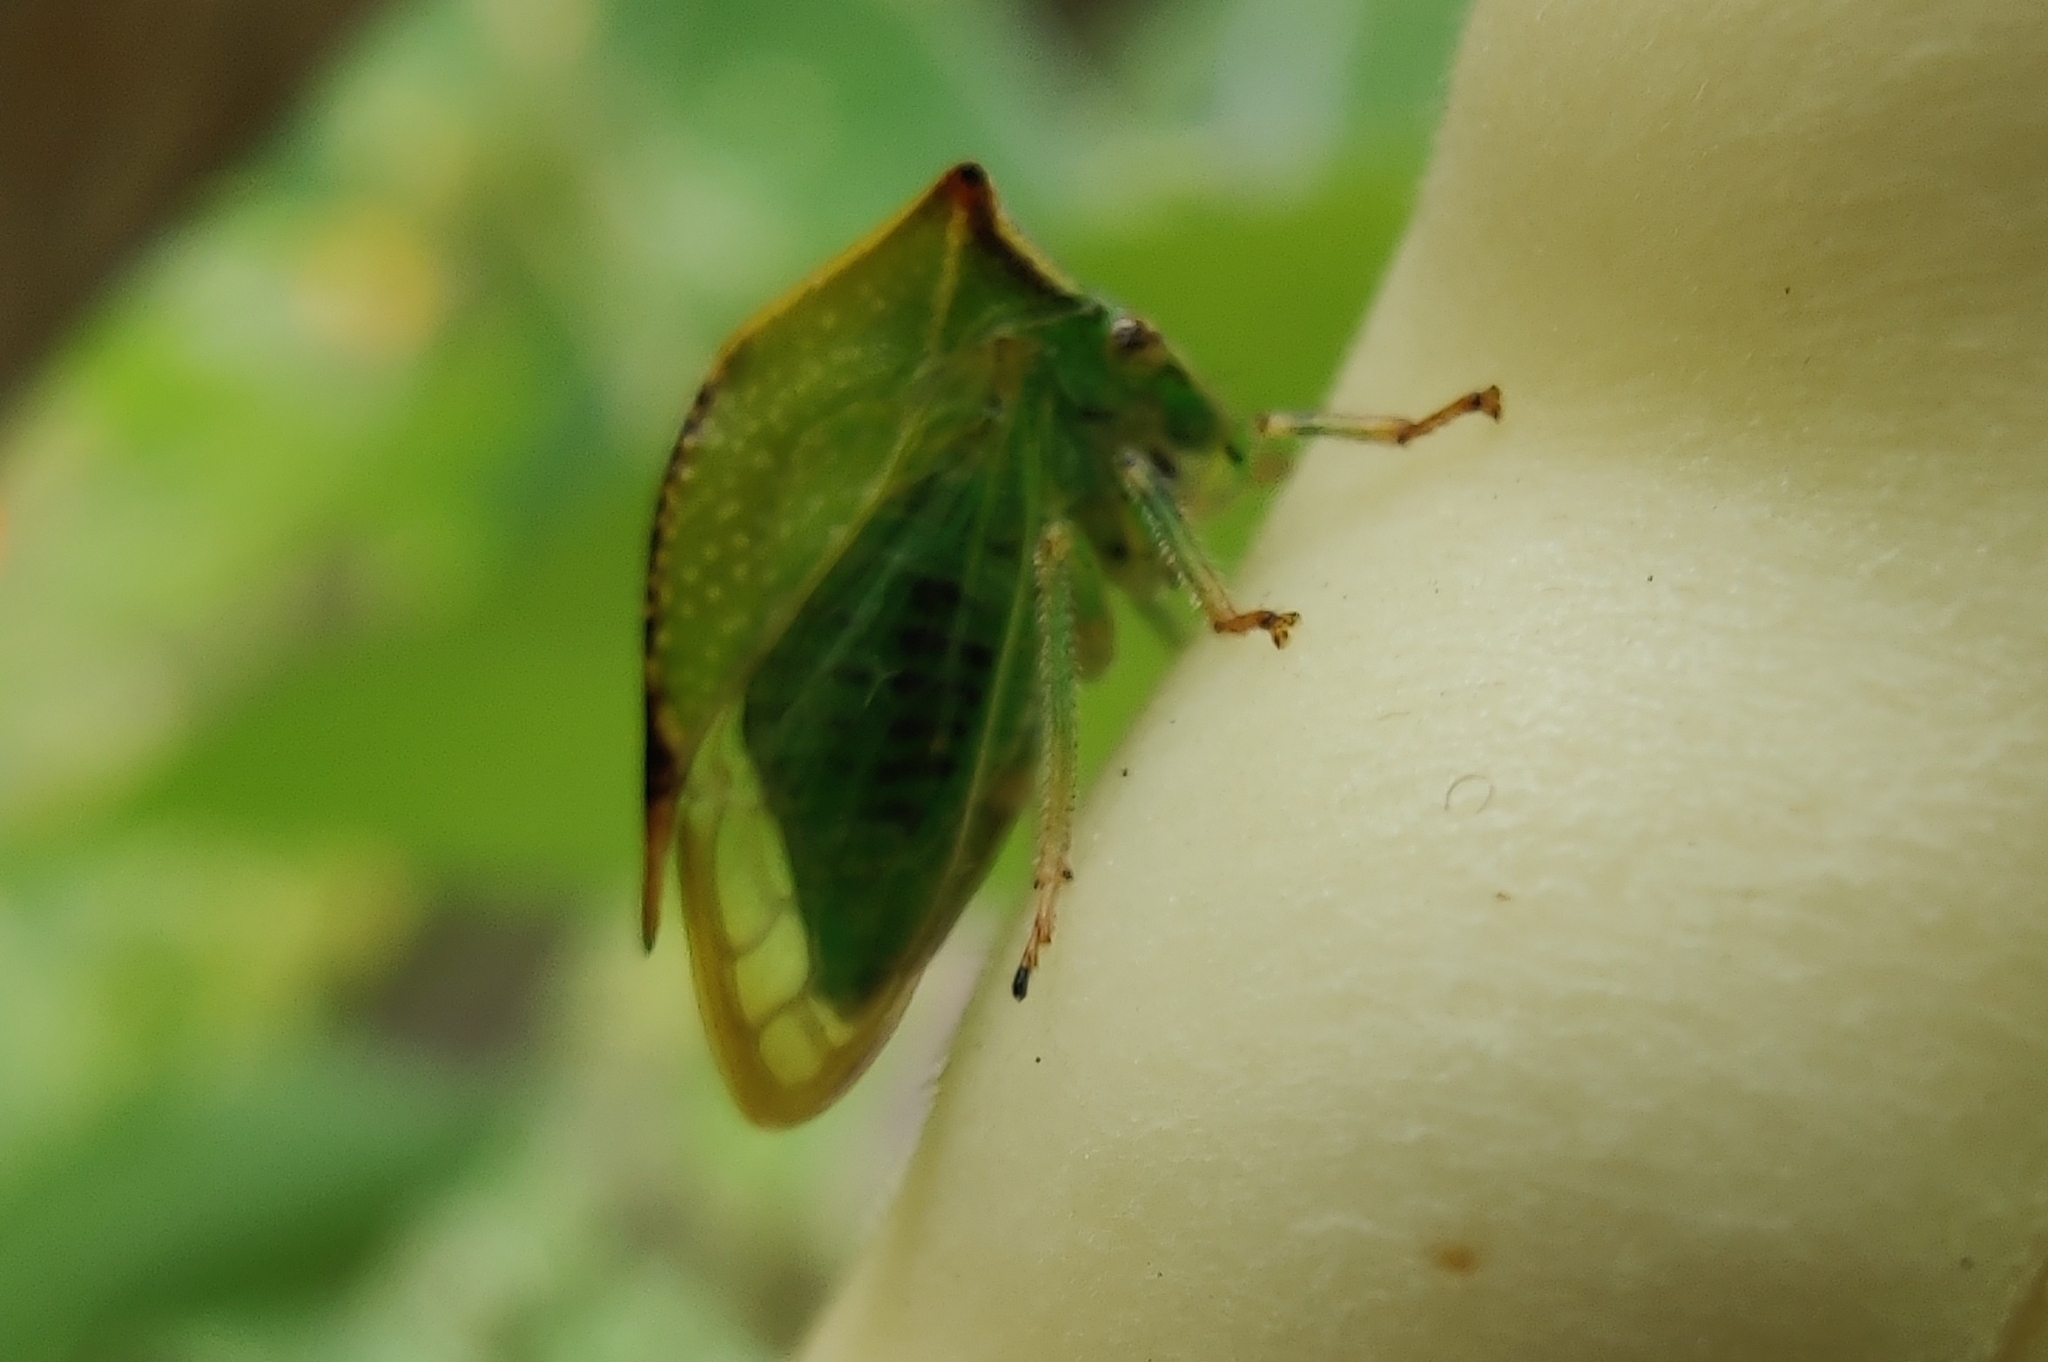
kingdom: Animalia
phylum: Arthropoda
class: Insecta
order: Hemiptera
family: Membracidae
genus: Stictocephala
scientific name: Stictocephala bisonia
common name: American buffalo treehopper
